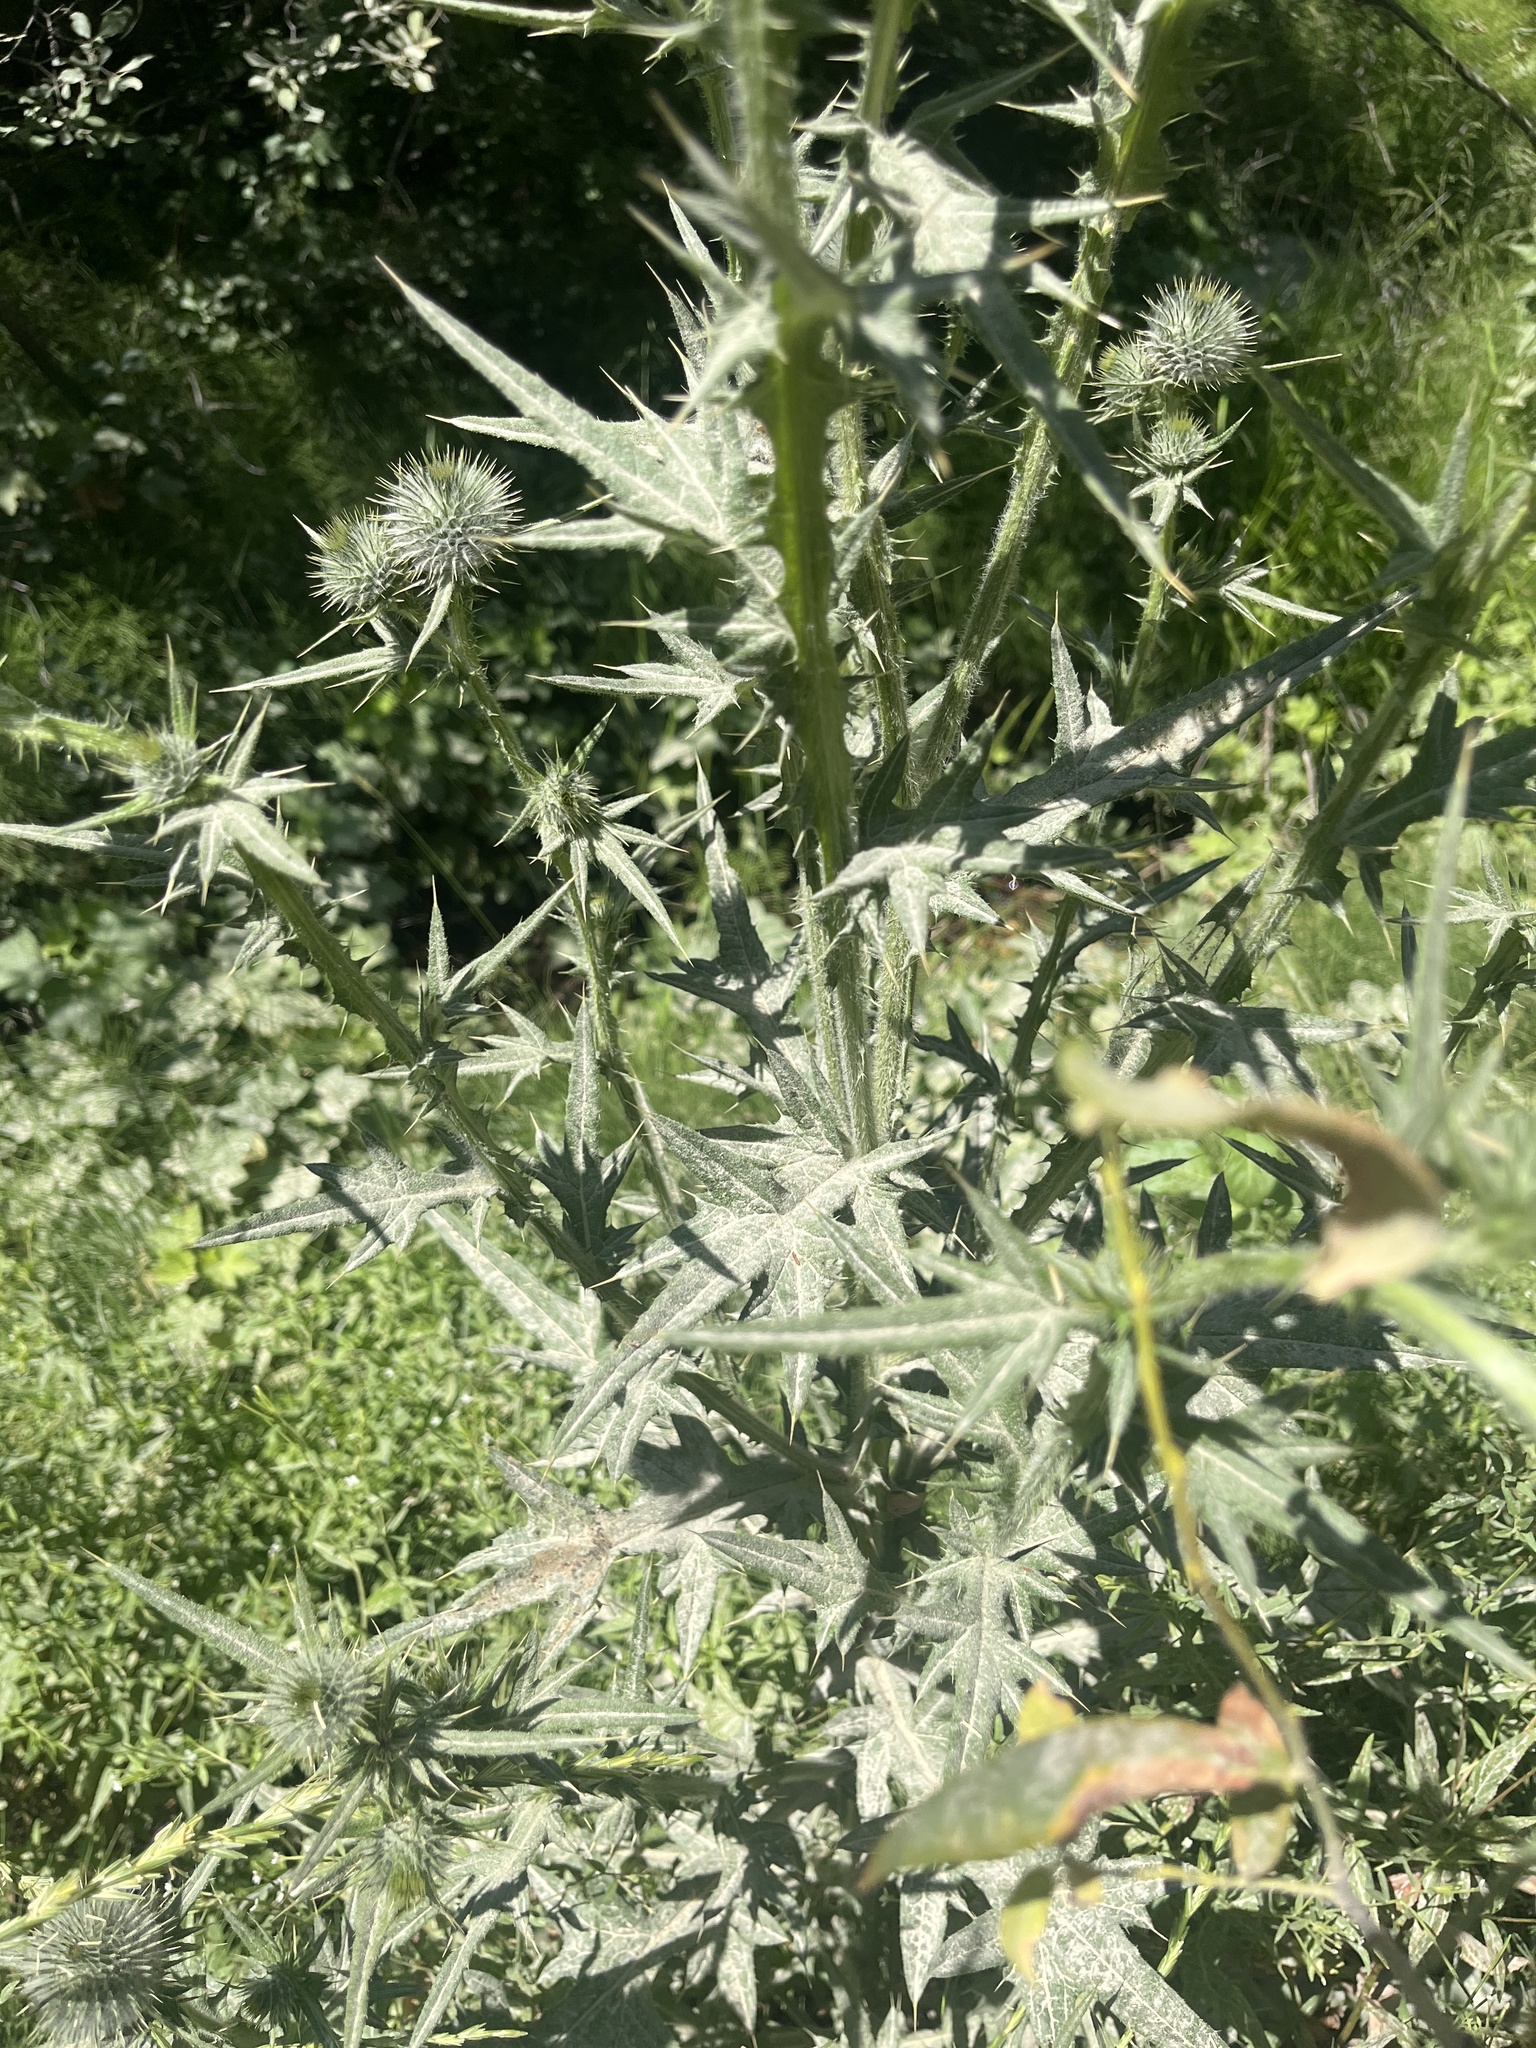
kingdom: Plantae
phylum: Tracheophyta
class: Magnoliopsida
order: Asterales
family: Asteraceae
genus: Cirsium
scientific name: Cirsium vulgare
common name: Bull thistle
